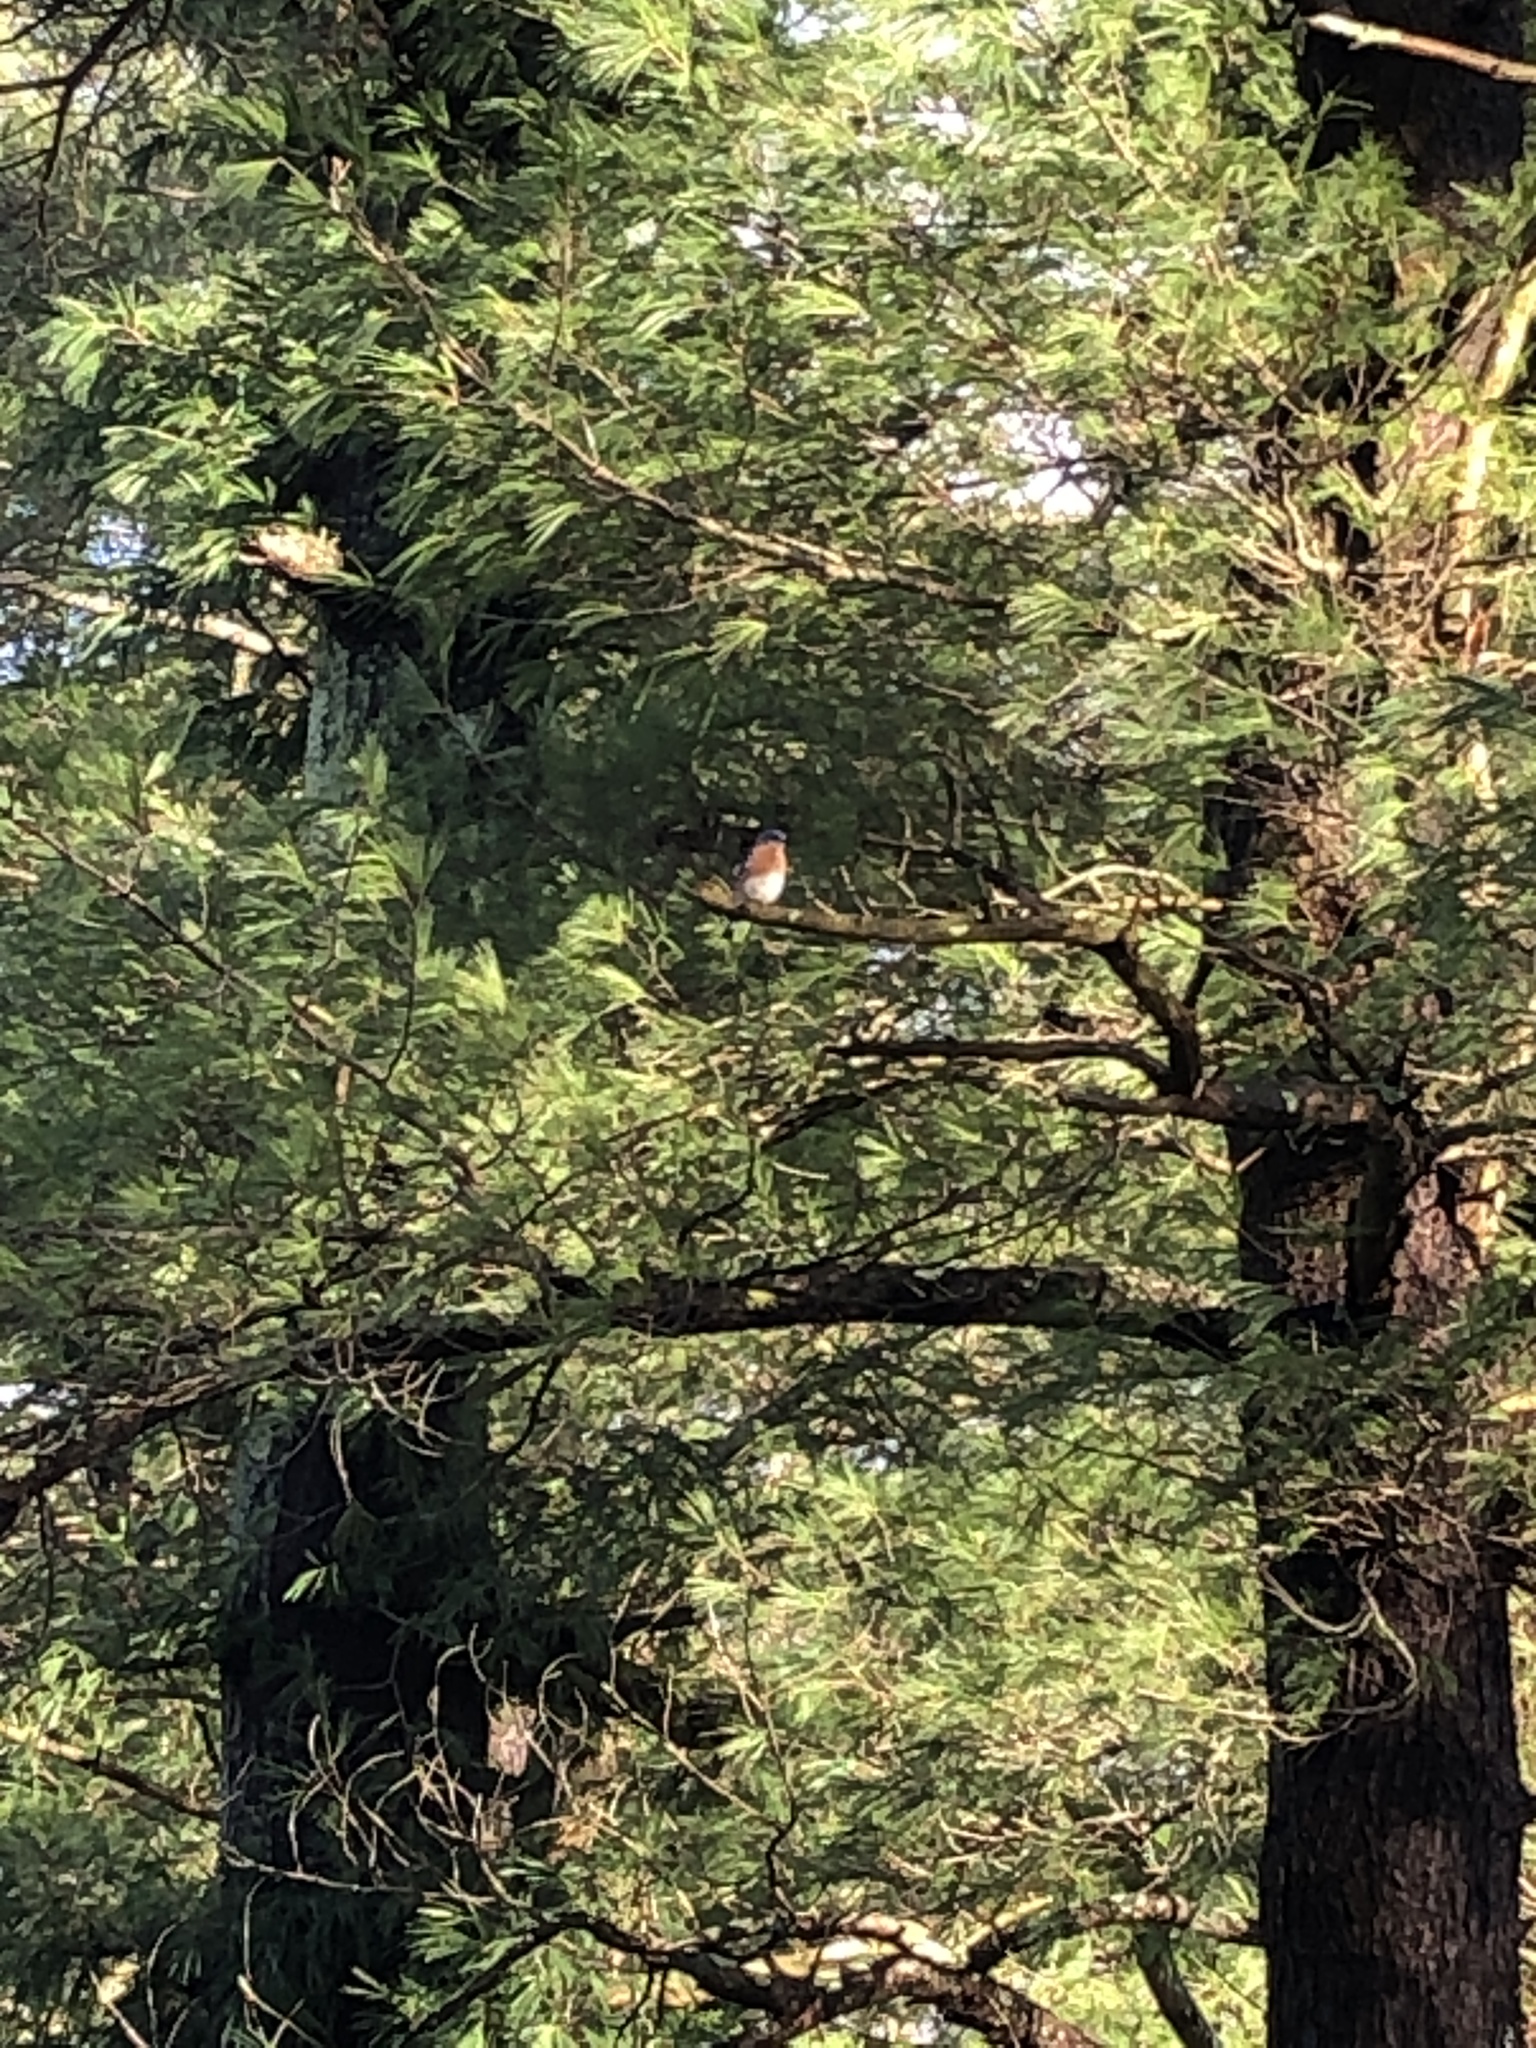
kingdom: Animalia
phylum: Chordata
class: Aves
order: Passeriformes
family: Turdidae
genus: Sialia
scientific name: Sialia sialis
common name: Eastern bluebird
